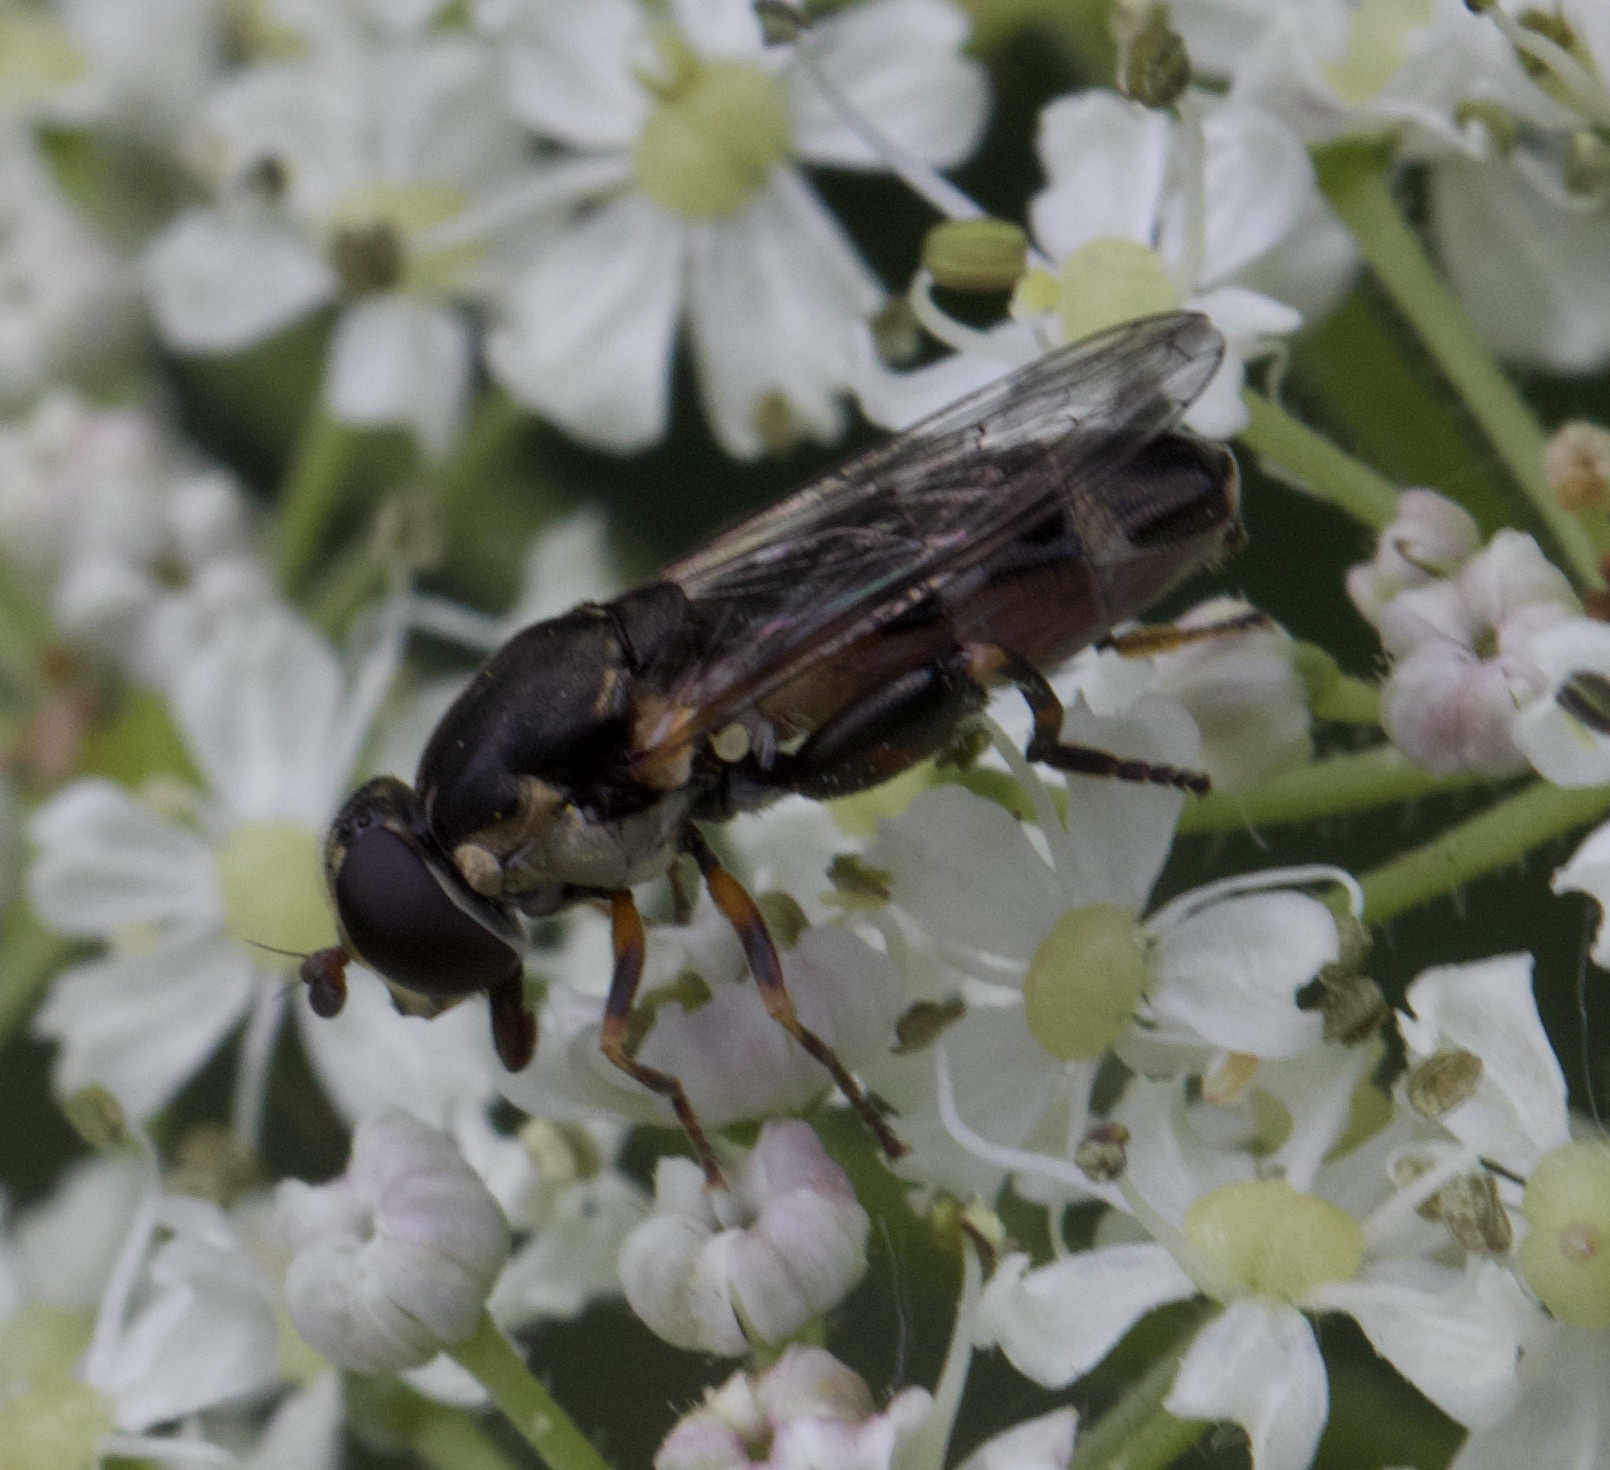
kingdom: Animalia
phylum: Arthropoda
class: Insecta
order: Diptera
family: Syrphidae
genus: Syritta
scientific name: Syritta pipiens
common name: Hover fly
